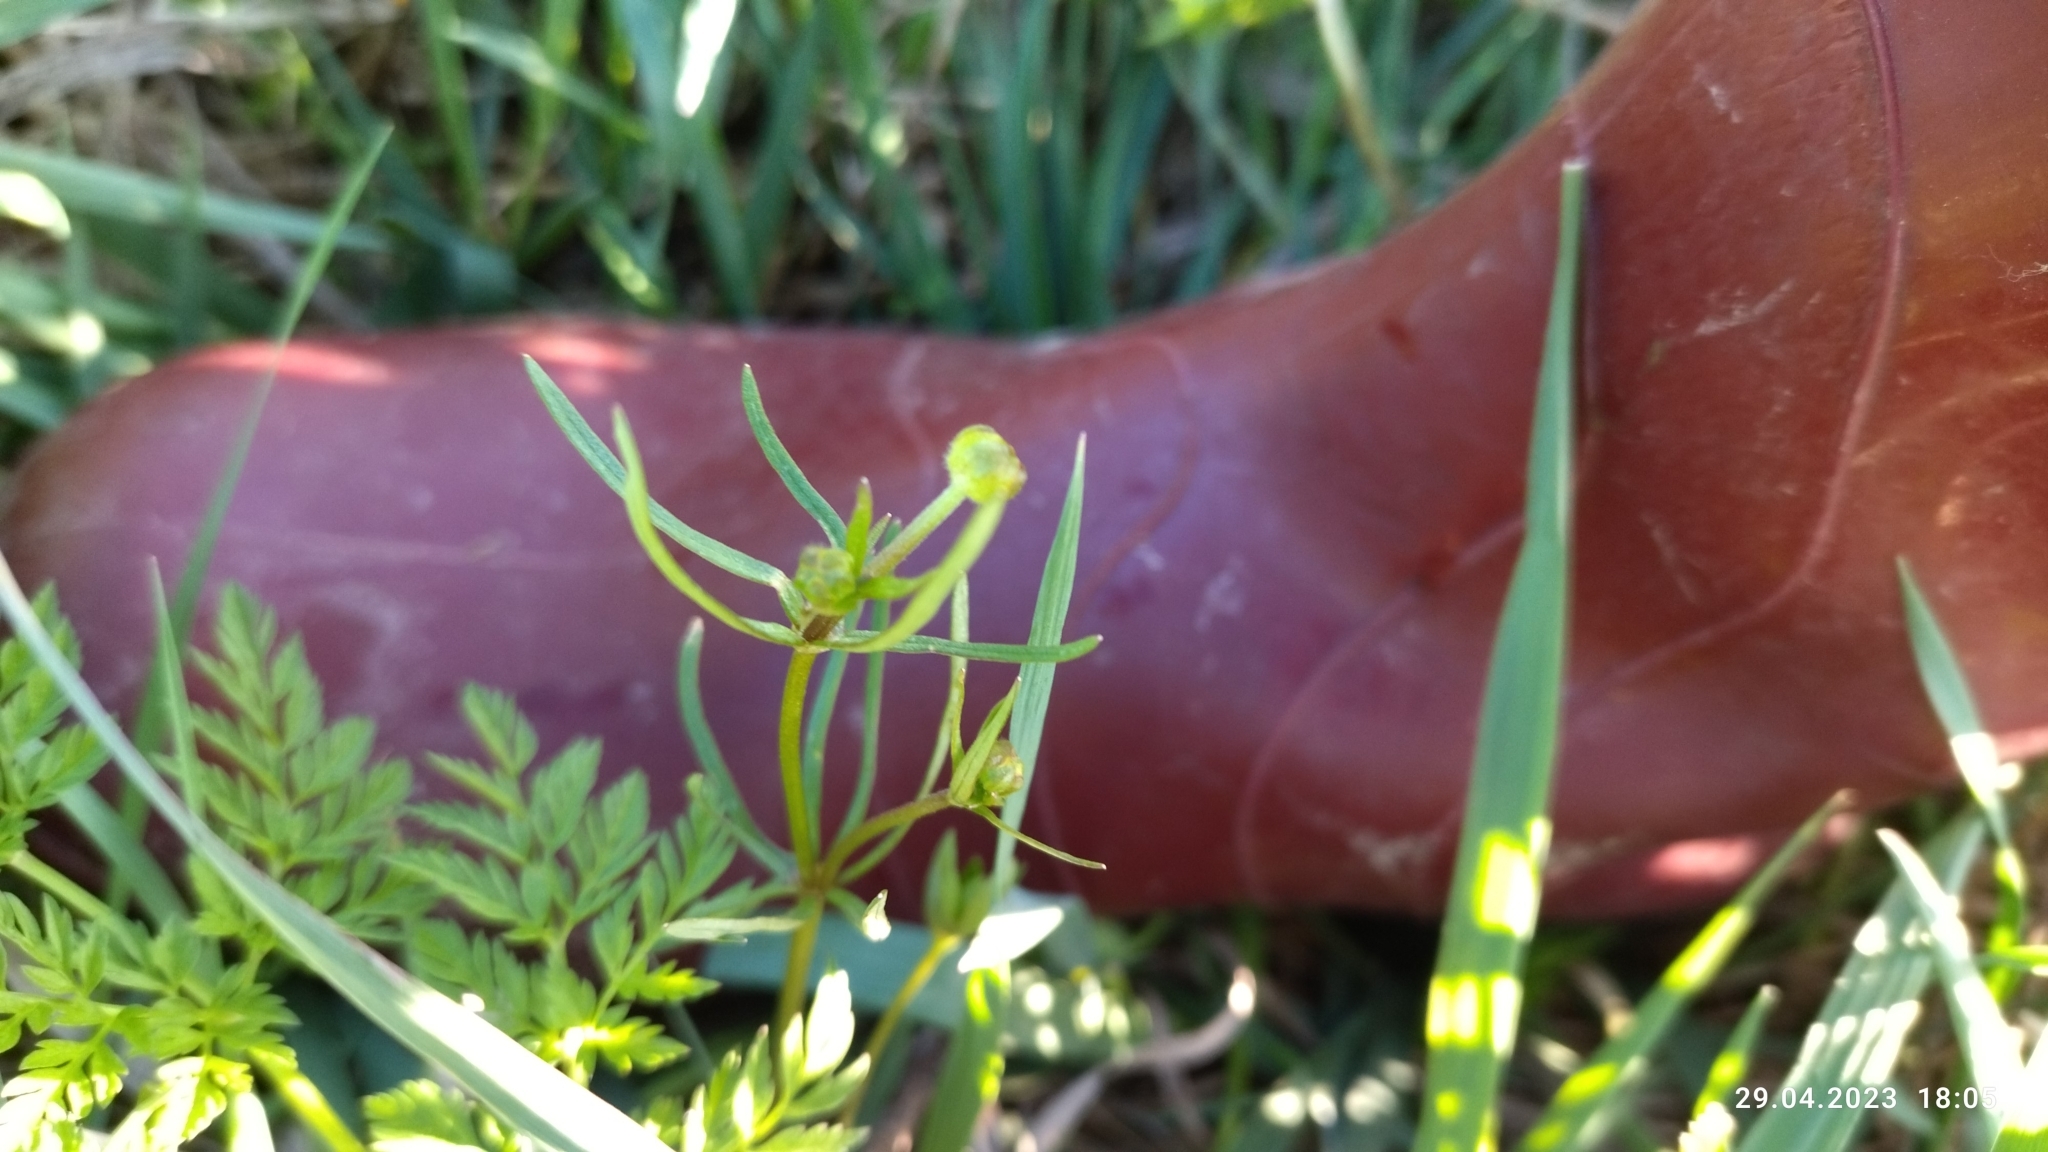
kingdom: Plantae
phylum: Tracheophyta
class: Magnoliopsida
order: Ranunculales
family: Ranunculaceae
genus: Ranunculus
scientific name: Ranunculus auricomus
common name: Goldilocks buttercup
